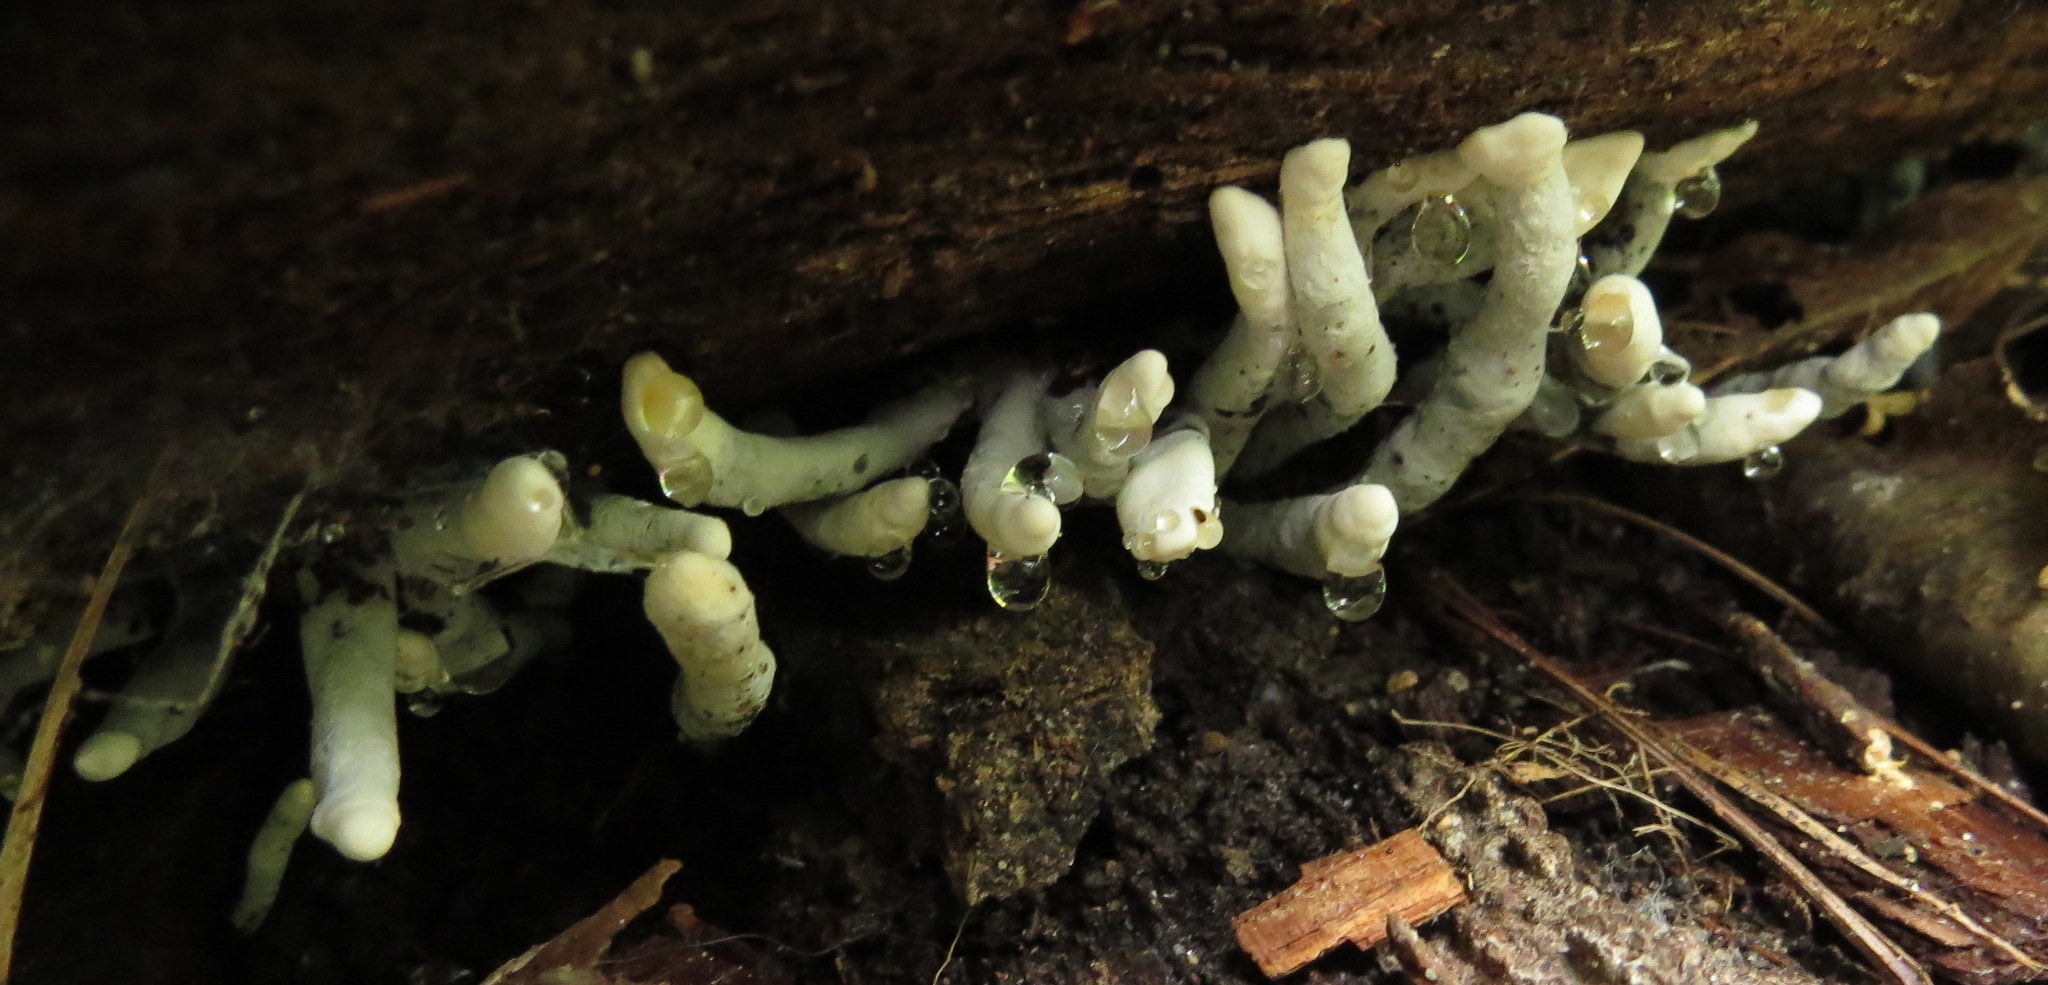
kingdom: Fungi
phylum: Ascomycota
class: Sordariomycetes
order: Xylariales
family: Xylariaceae
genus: Xylaria
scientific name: Xylaria
